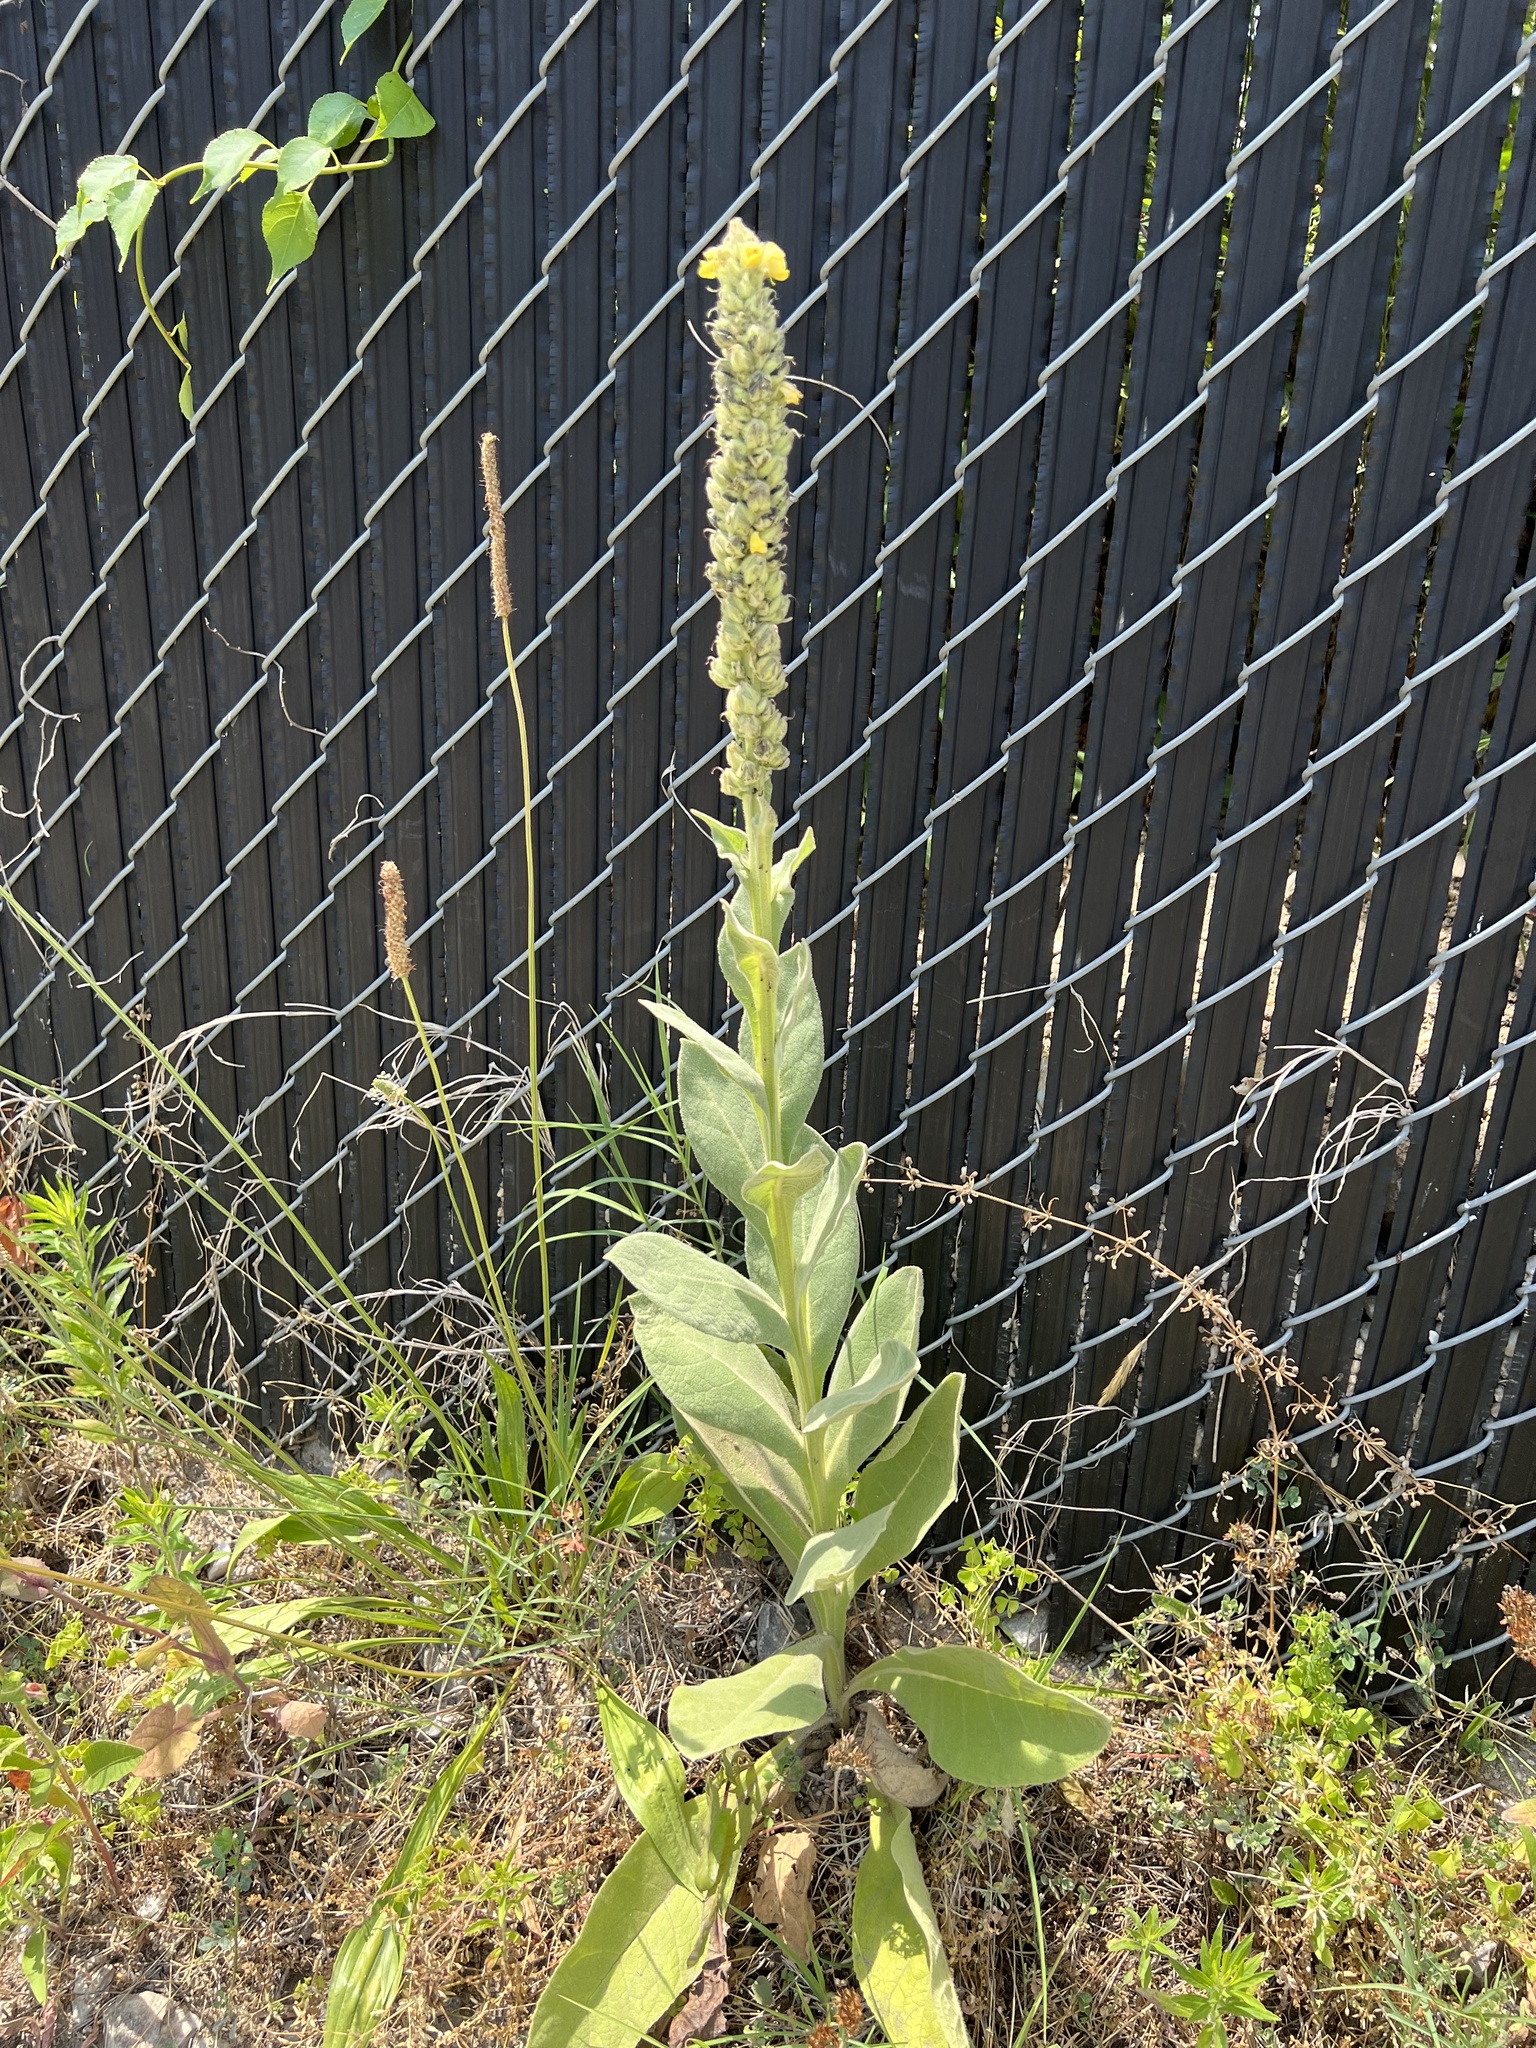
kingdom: Plantae
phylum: Tracheophyta
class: Magnoliopsida
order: Lamiales
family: Scrophulariaceae
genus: Verbascum
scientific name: Verbascum thapsus
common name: Common mullein
